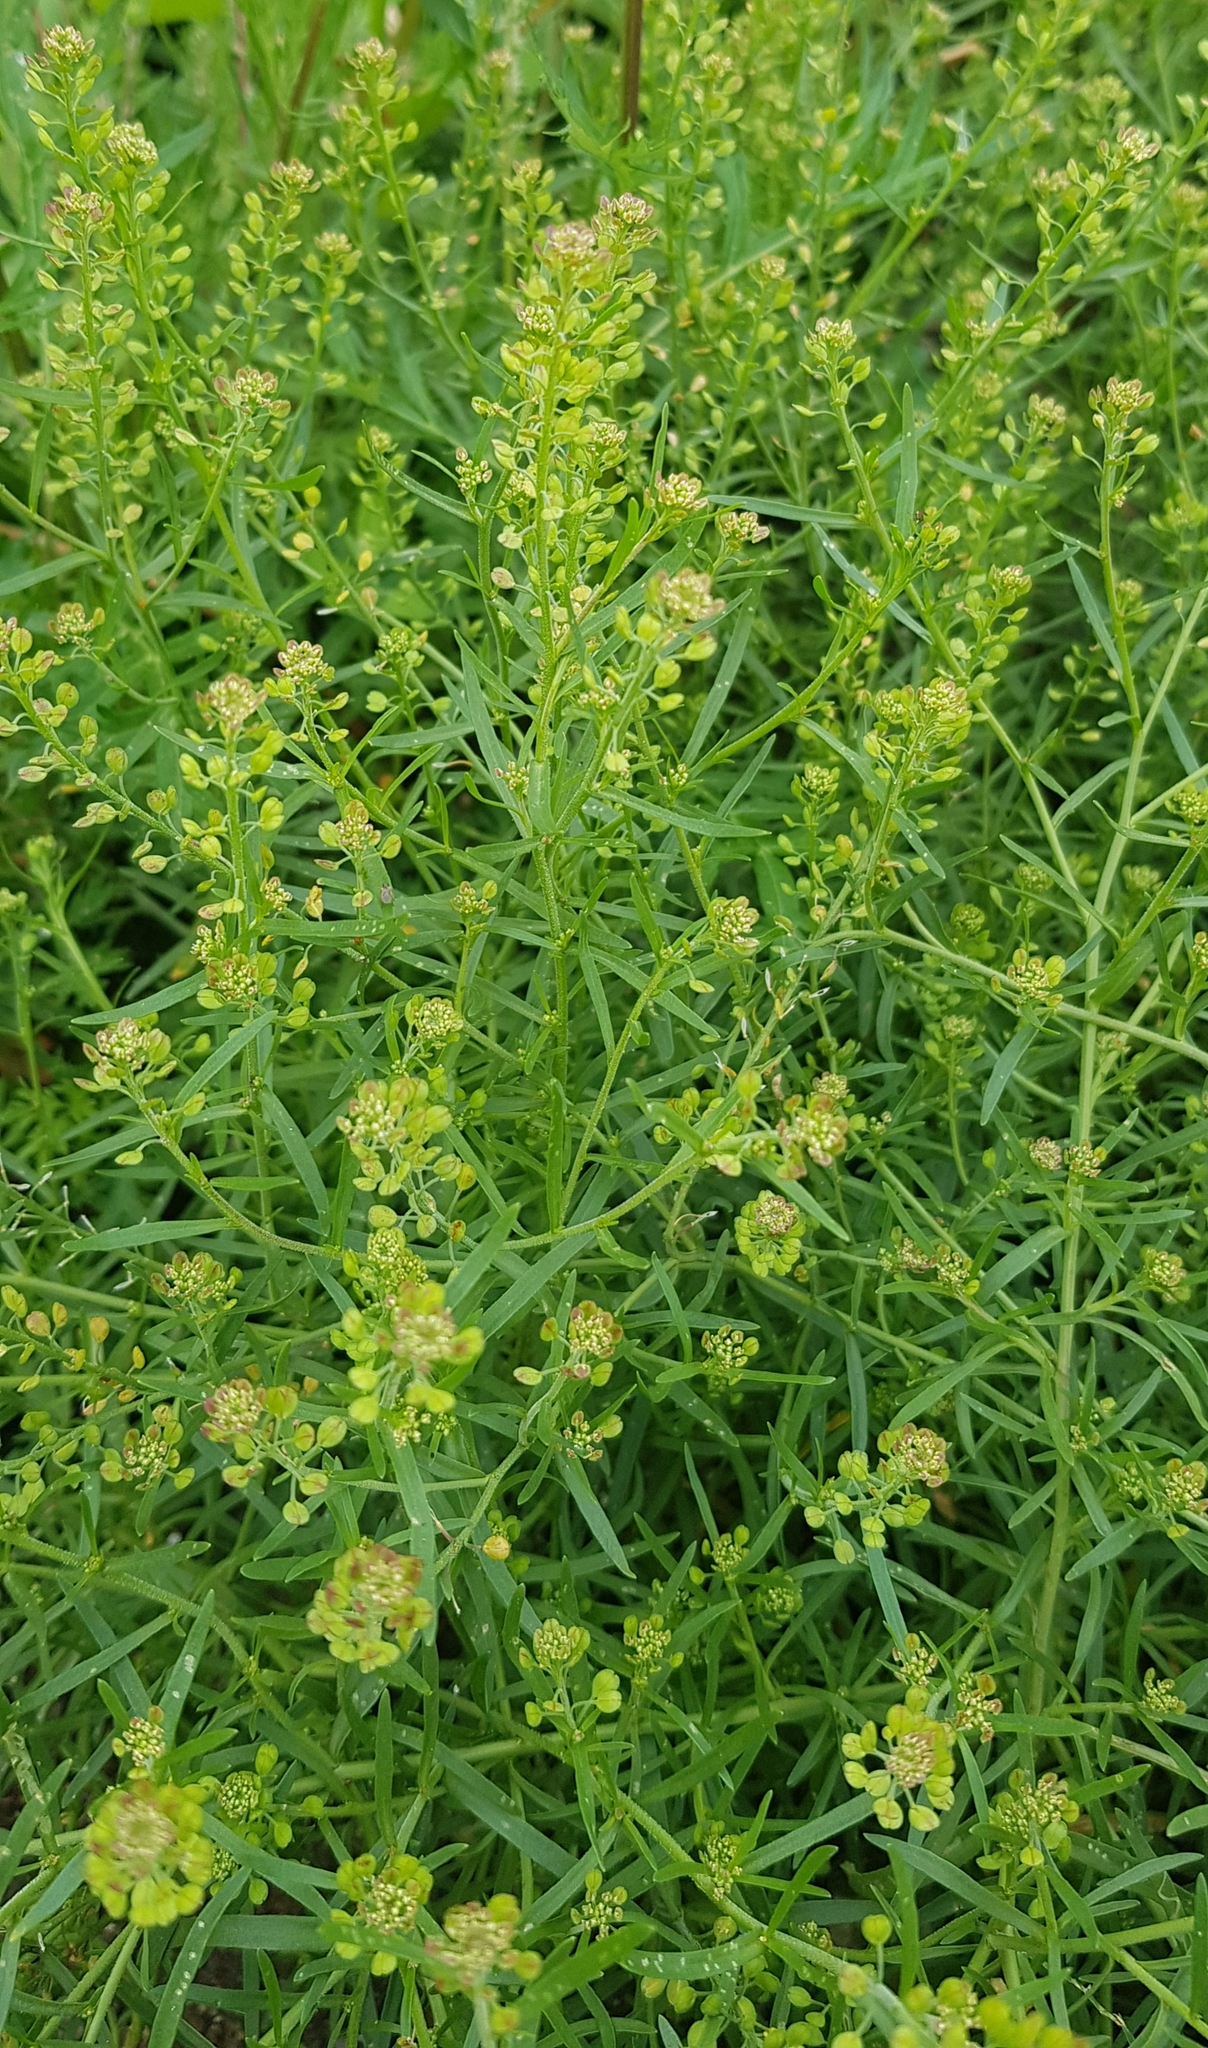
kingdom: Plantae
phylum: Tracheophyta
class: Magnoliopsida
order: Brassicales
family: Brassicaceae
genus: Lepidium
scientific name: Lepidium ruderale
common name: Narrow-leaved pepperwort
